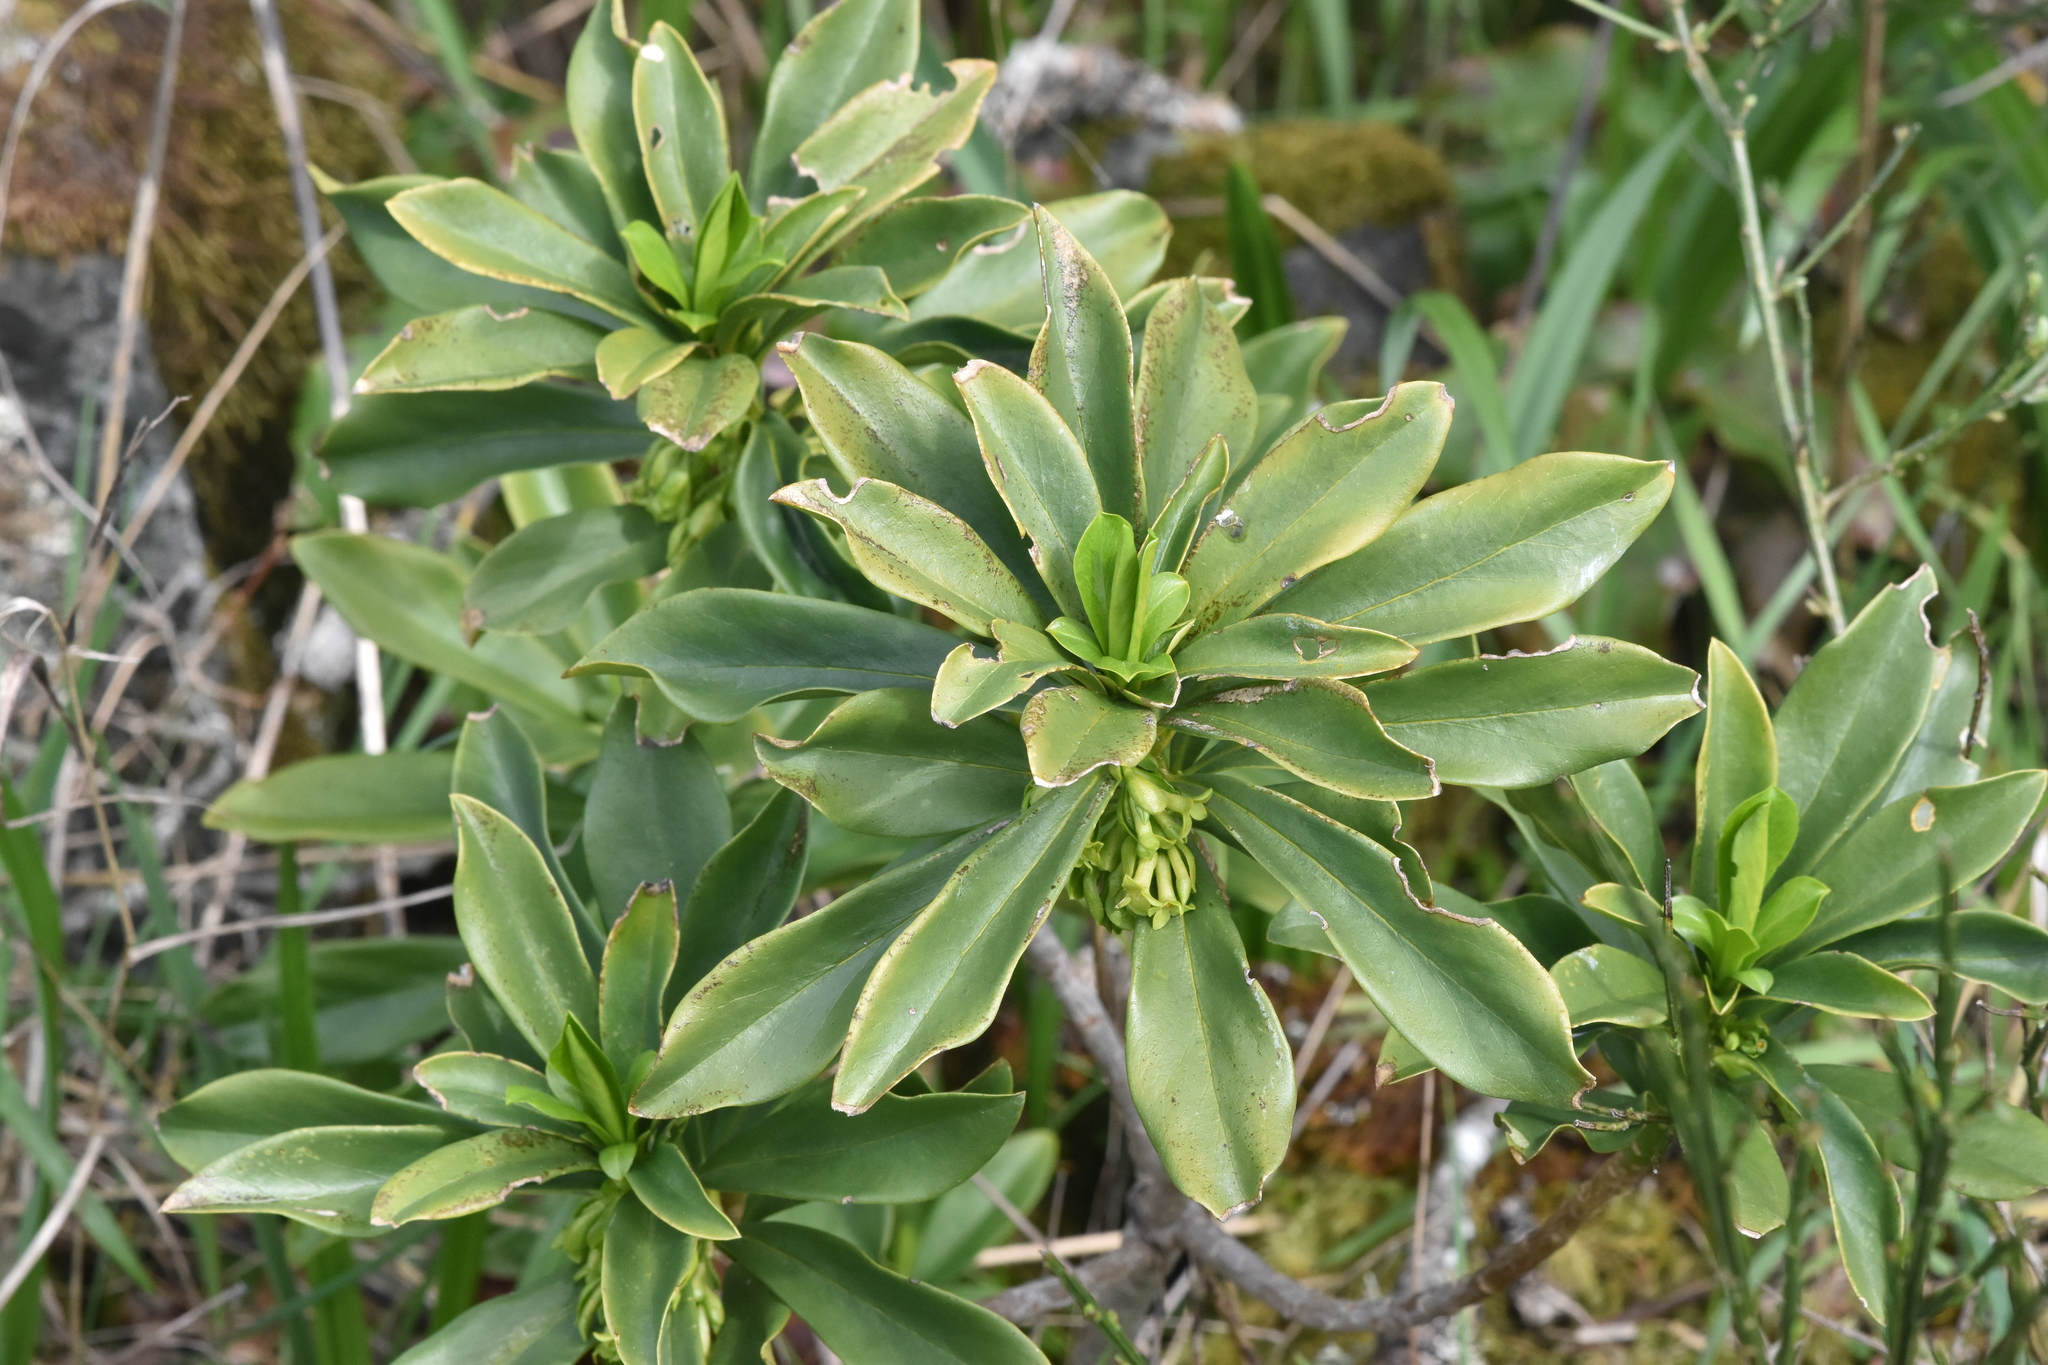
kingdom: Plantae
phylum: Tracheophyta
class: Magnoliopsida
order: Malvales
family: Thymelaeaceae
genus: Daphne
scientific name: Daphne laureola
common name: Spurge-laurel
